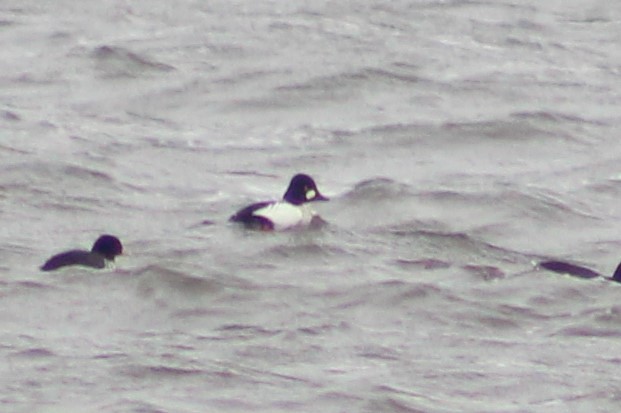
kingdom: Animalia
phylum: Chordata
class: Aves
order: Anseriformes
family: Anatidae
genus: Bucephala
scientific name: Bucephala clangula
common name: Common goldeneye
